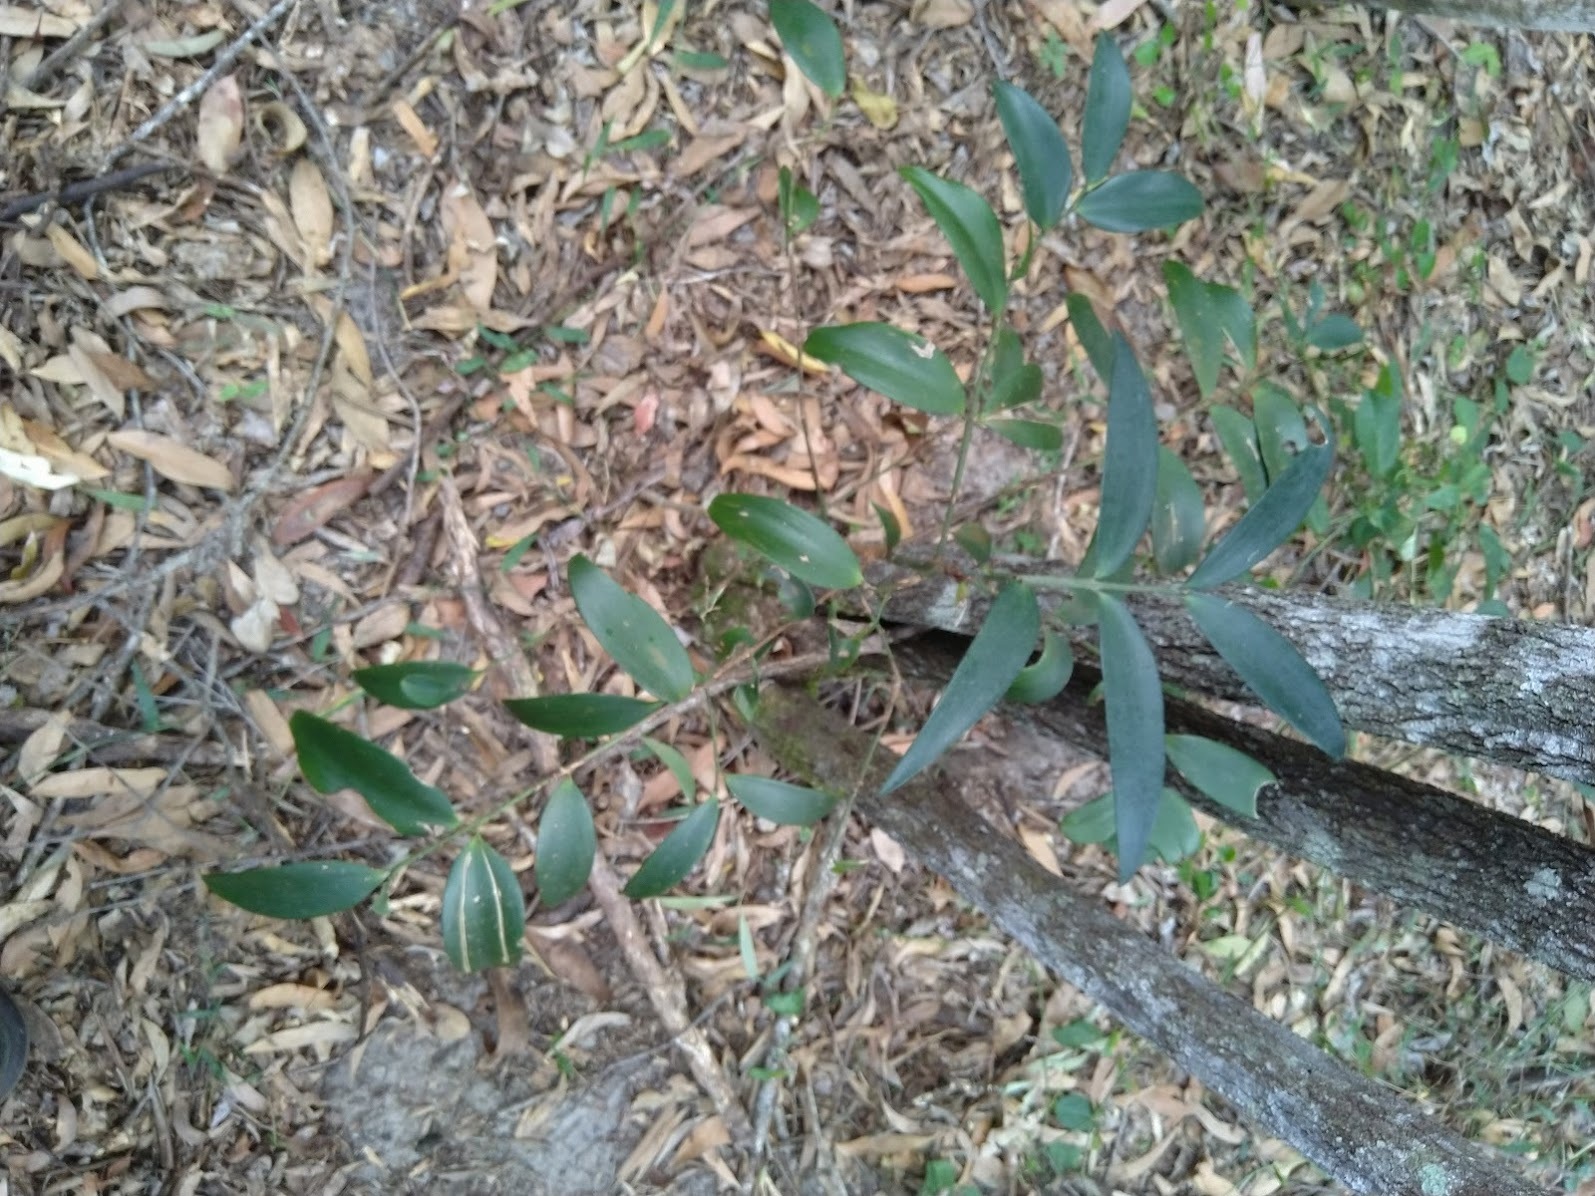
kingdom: Plantae
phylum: Tracheophyta
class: Pinopsida
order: Pinales
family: Araucariaceae
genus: Agathis
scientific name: Agathis robusta
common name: Australian-kauri
